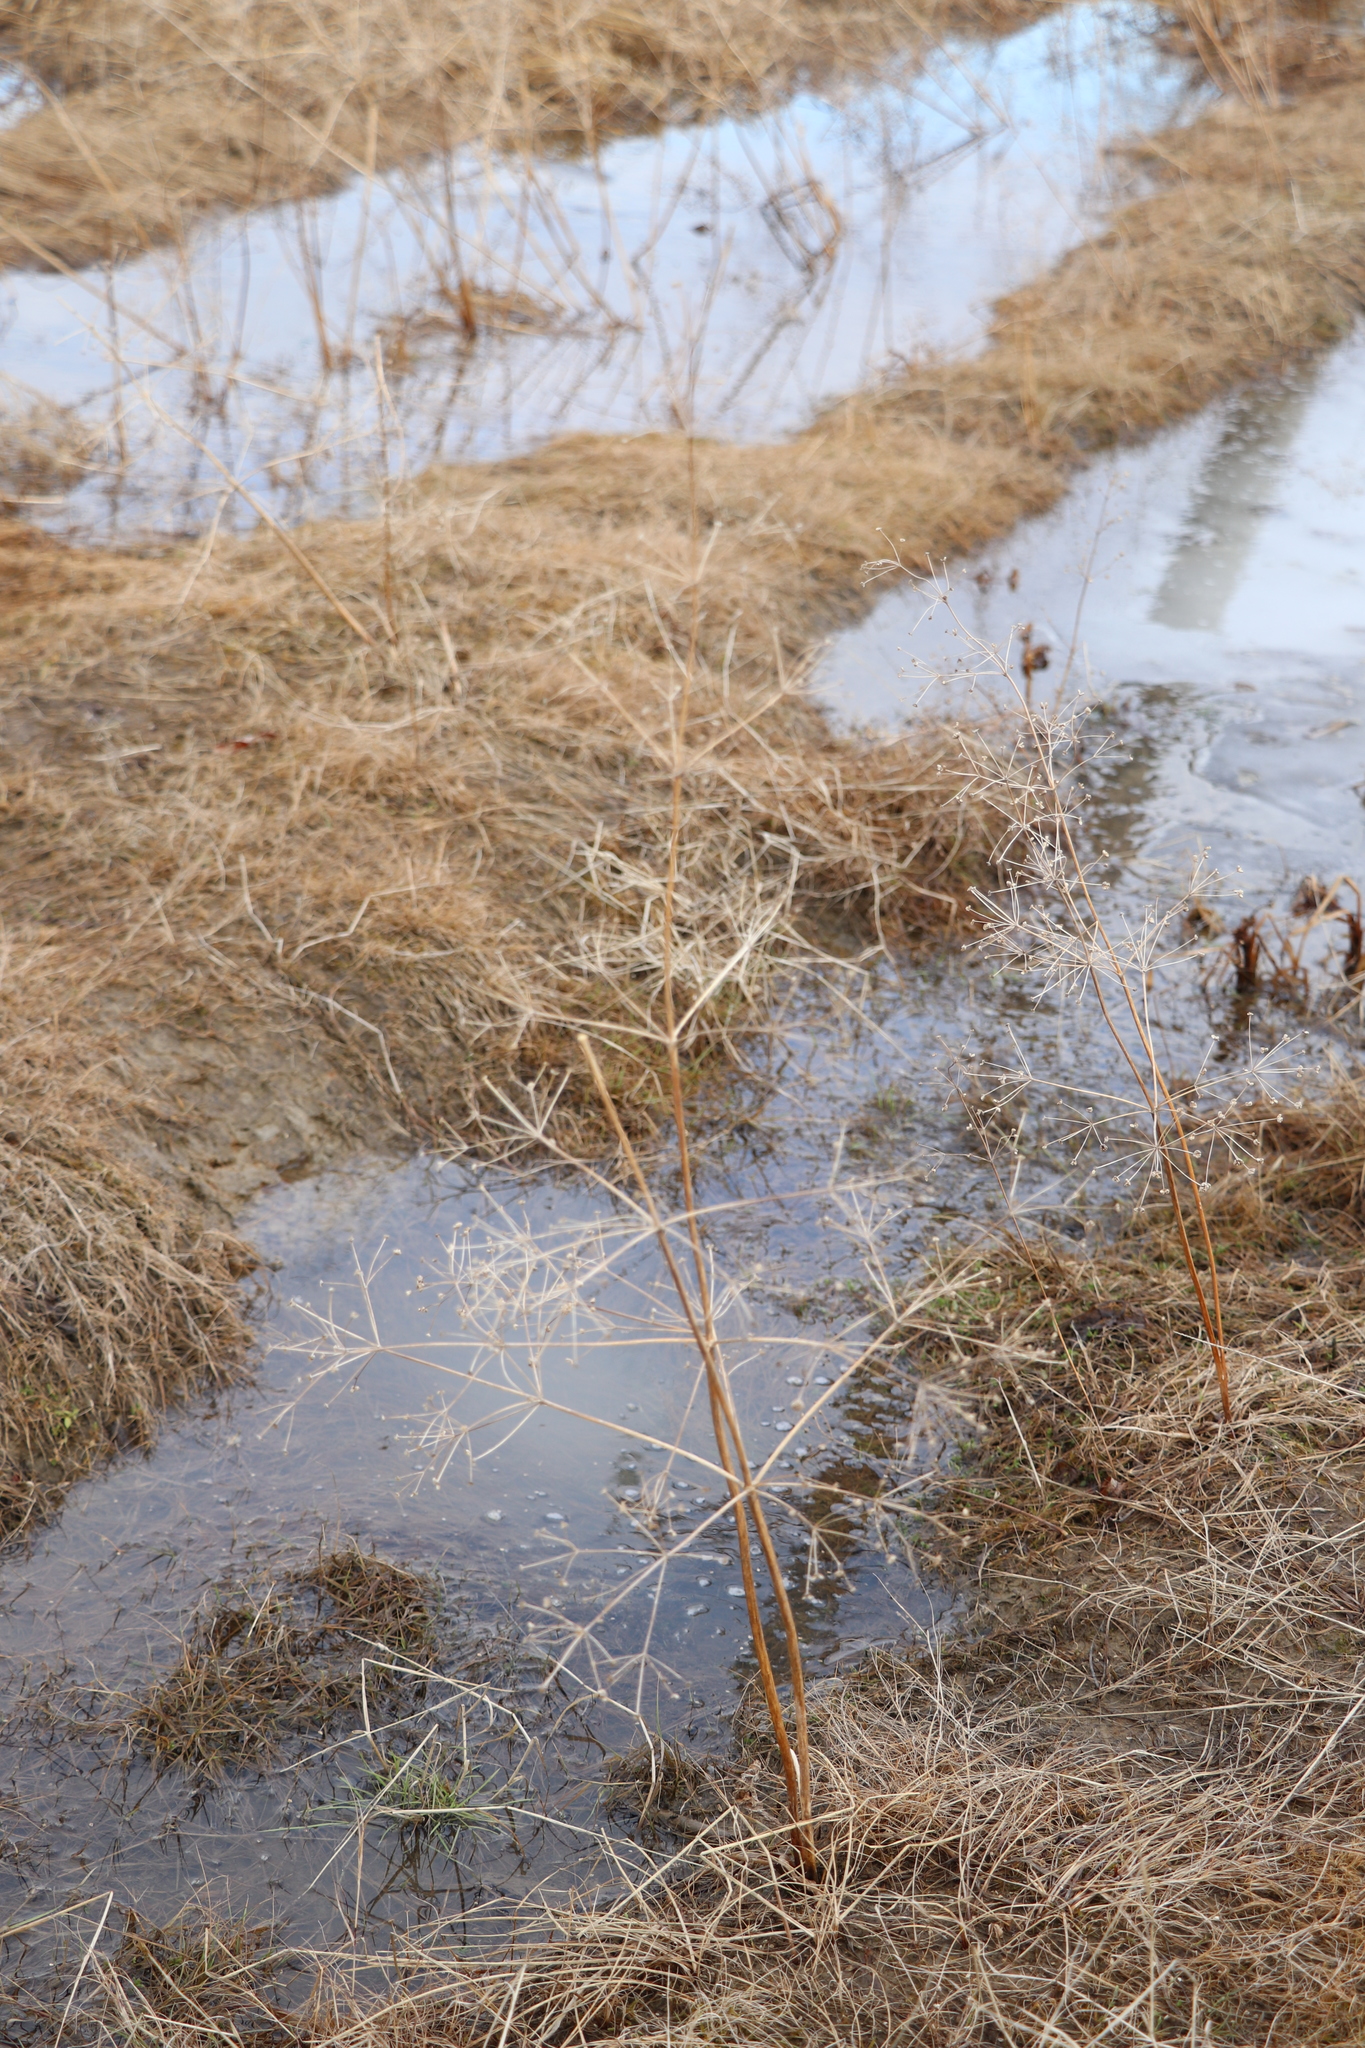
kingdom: Plantae
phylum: Tracheophyta
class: Liliopsida
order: Alismatales
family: Alismataceae
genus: Alisma
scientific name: Alisma plantago-aquatica
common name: Water-plantain
